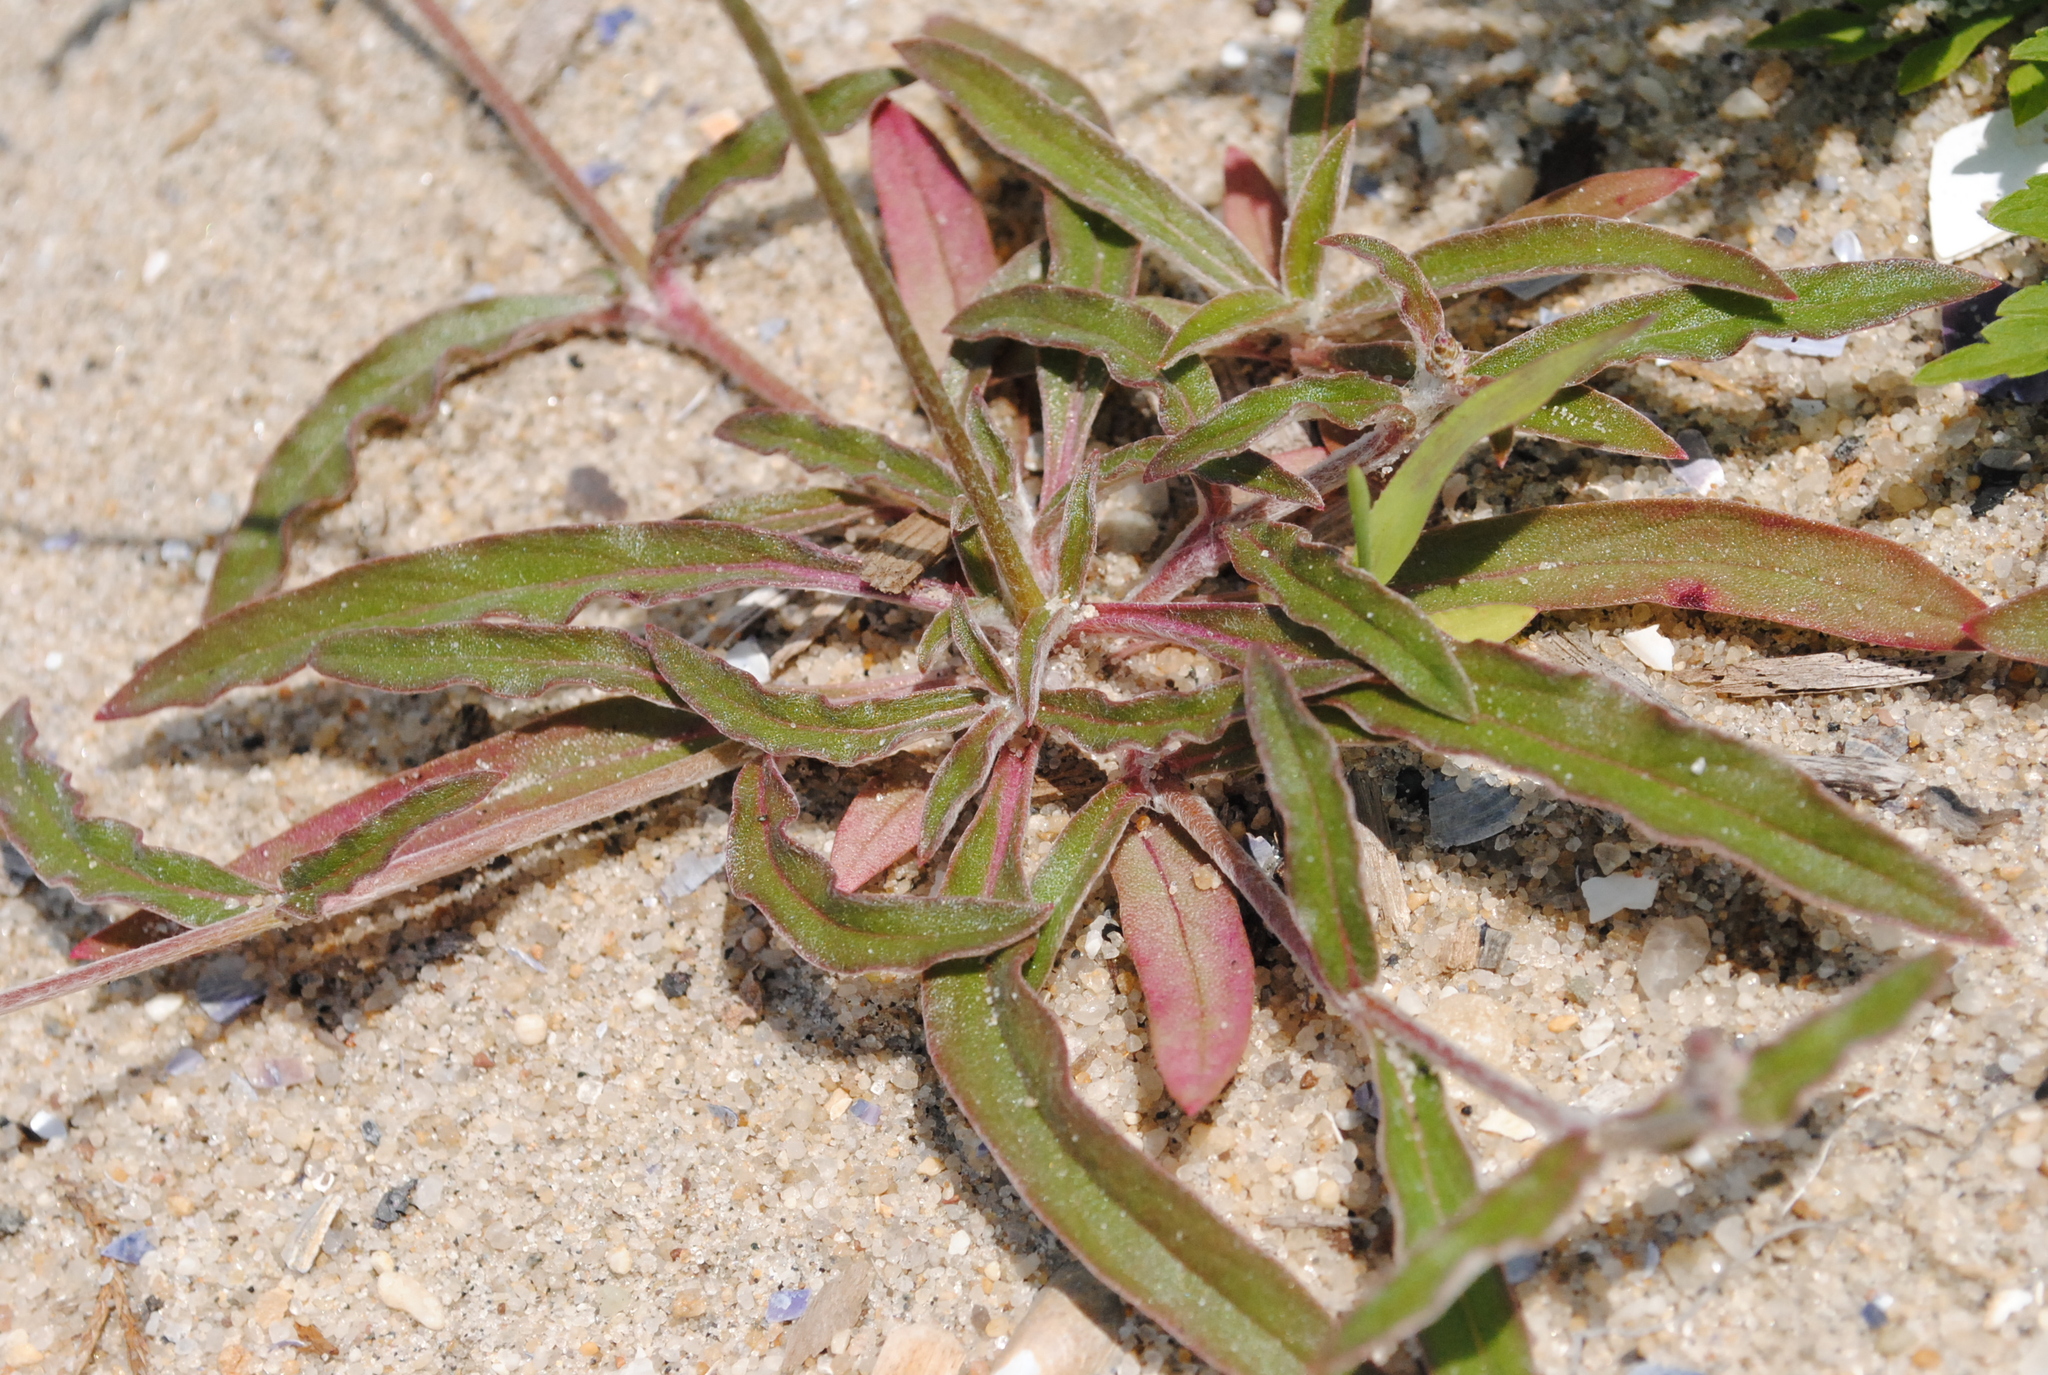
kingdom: Plantae
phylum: Tracheophyta
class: Magnoliopsida
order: Caryophyllales
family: Amaranthaceae
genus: Froelichia
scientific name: Froelichia gracilis
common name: Slender cottonweed
